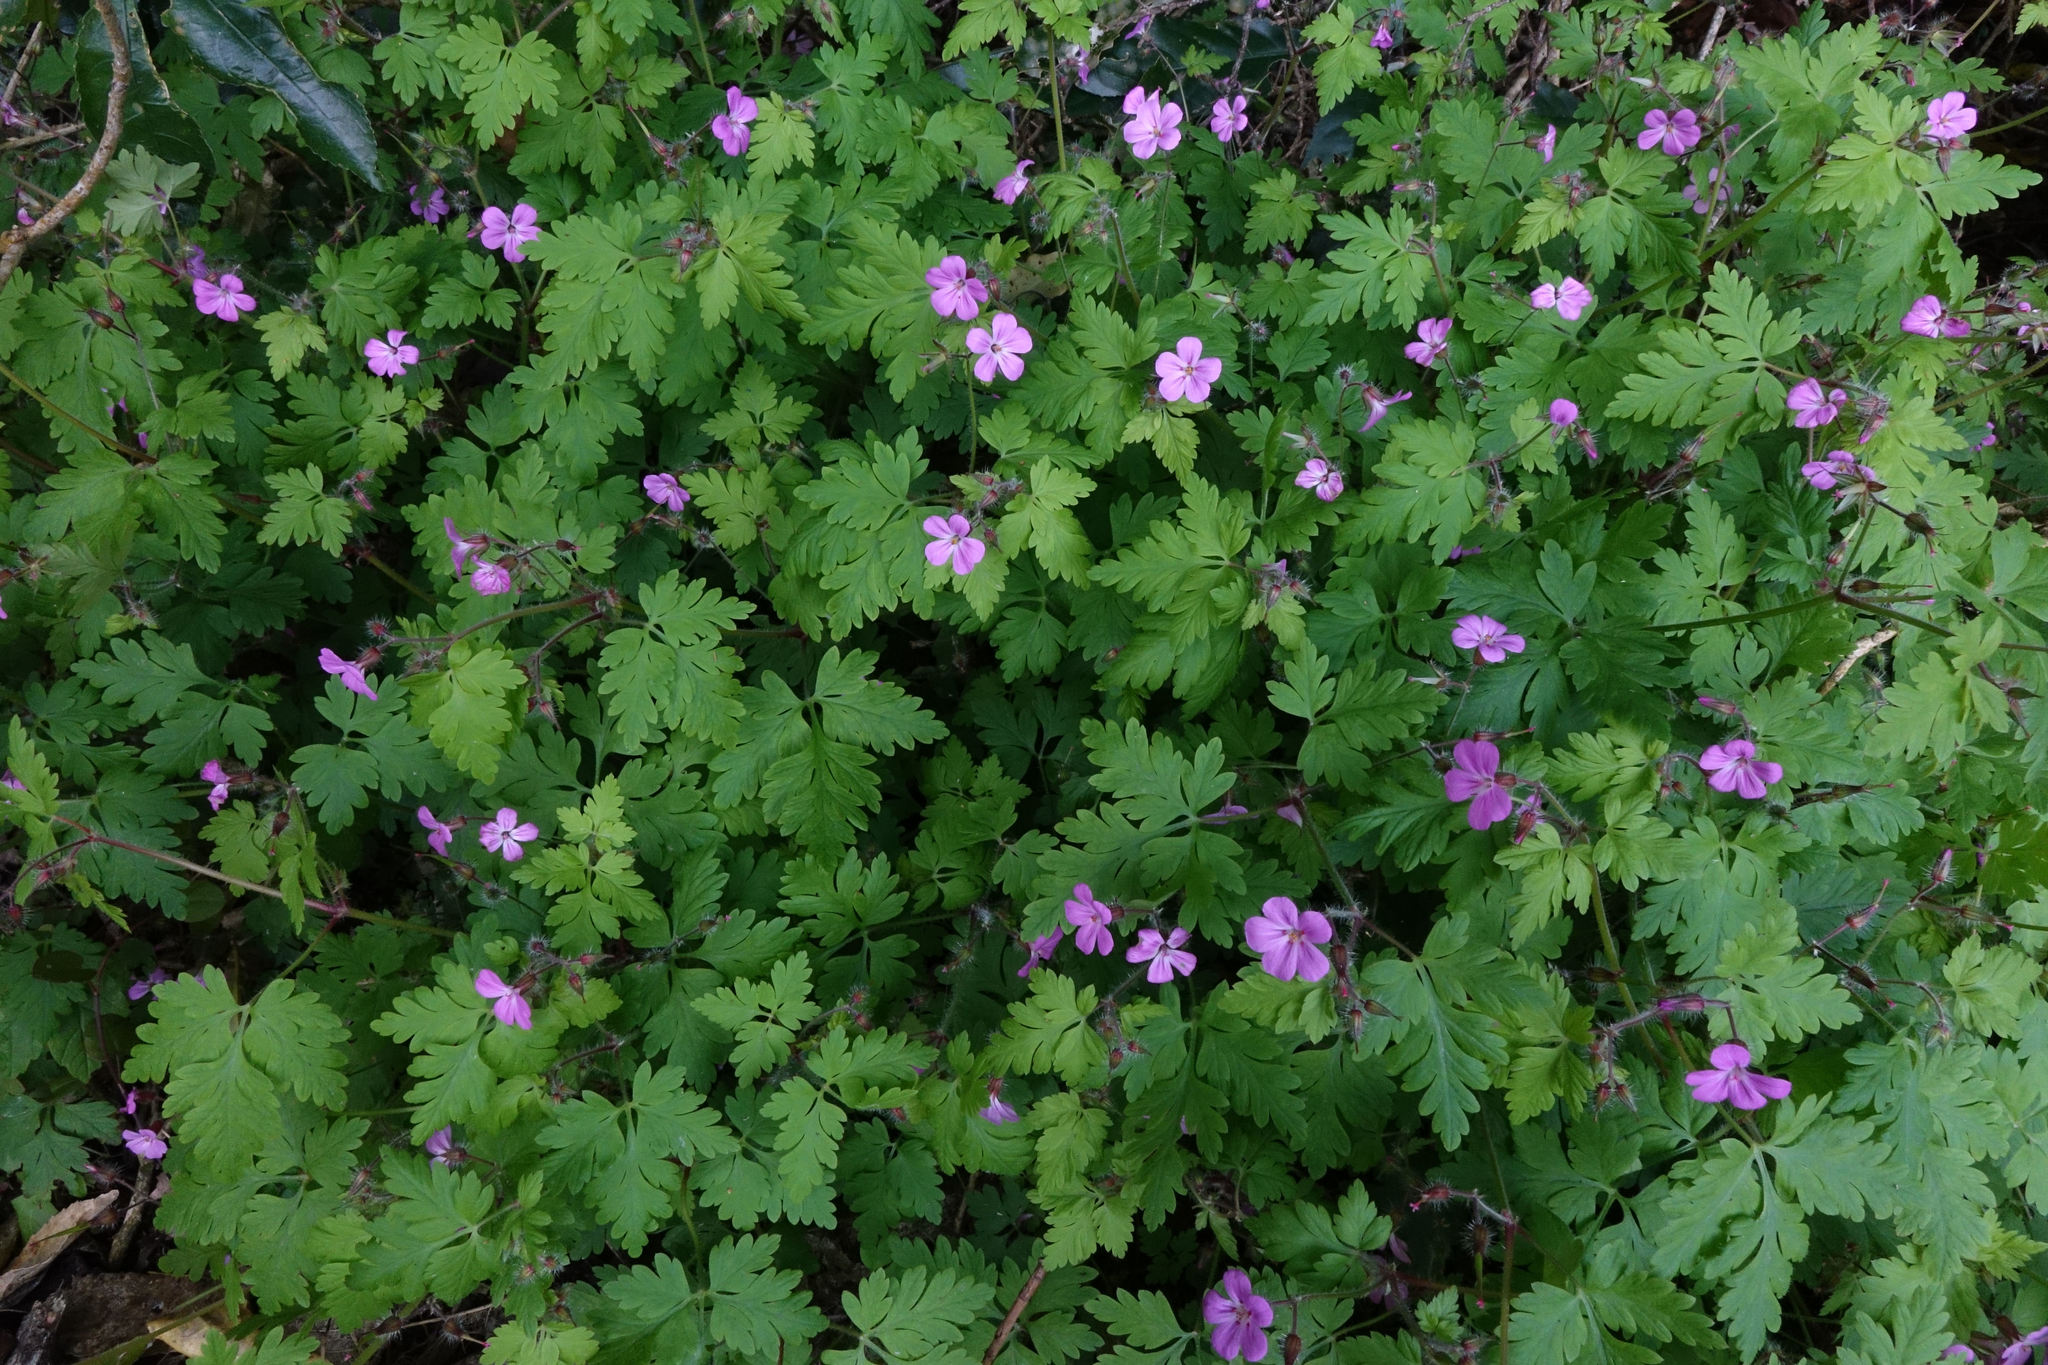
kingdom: Plantae
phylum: Tracheophyta
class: Magnoliopsida
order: Geraniales
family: Geraniaceae
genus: Geranium
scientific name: Geranium robertianum
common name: Herb-robert
